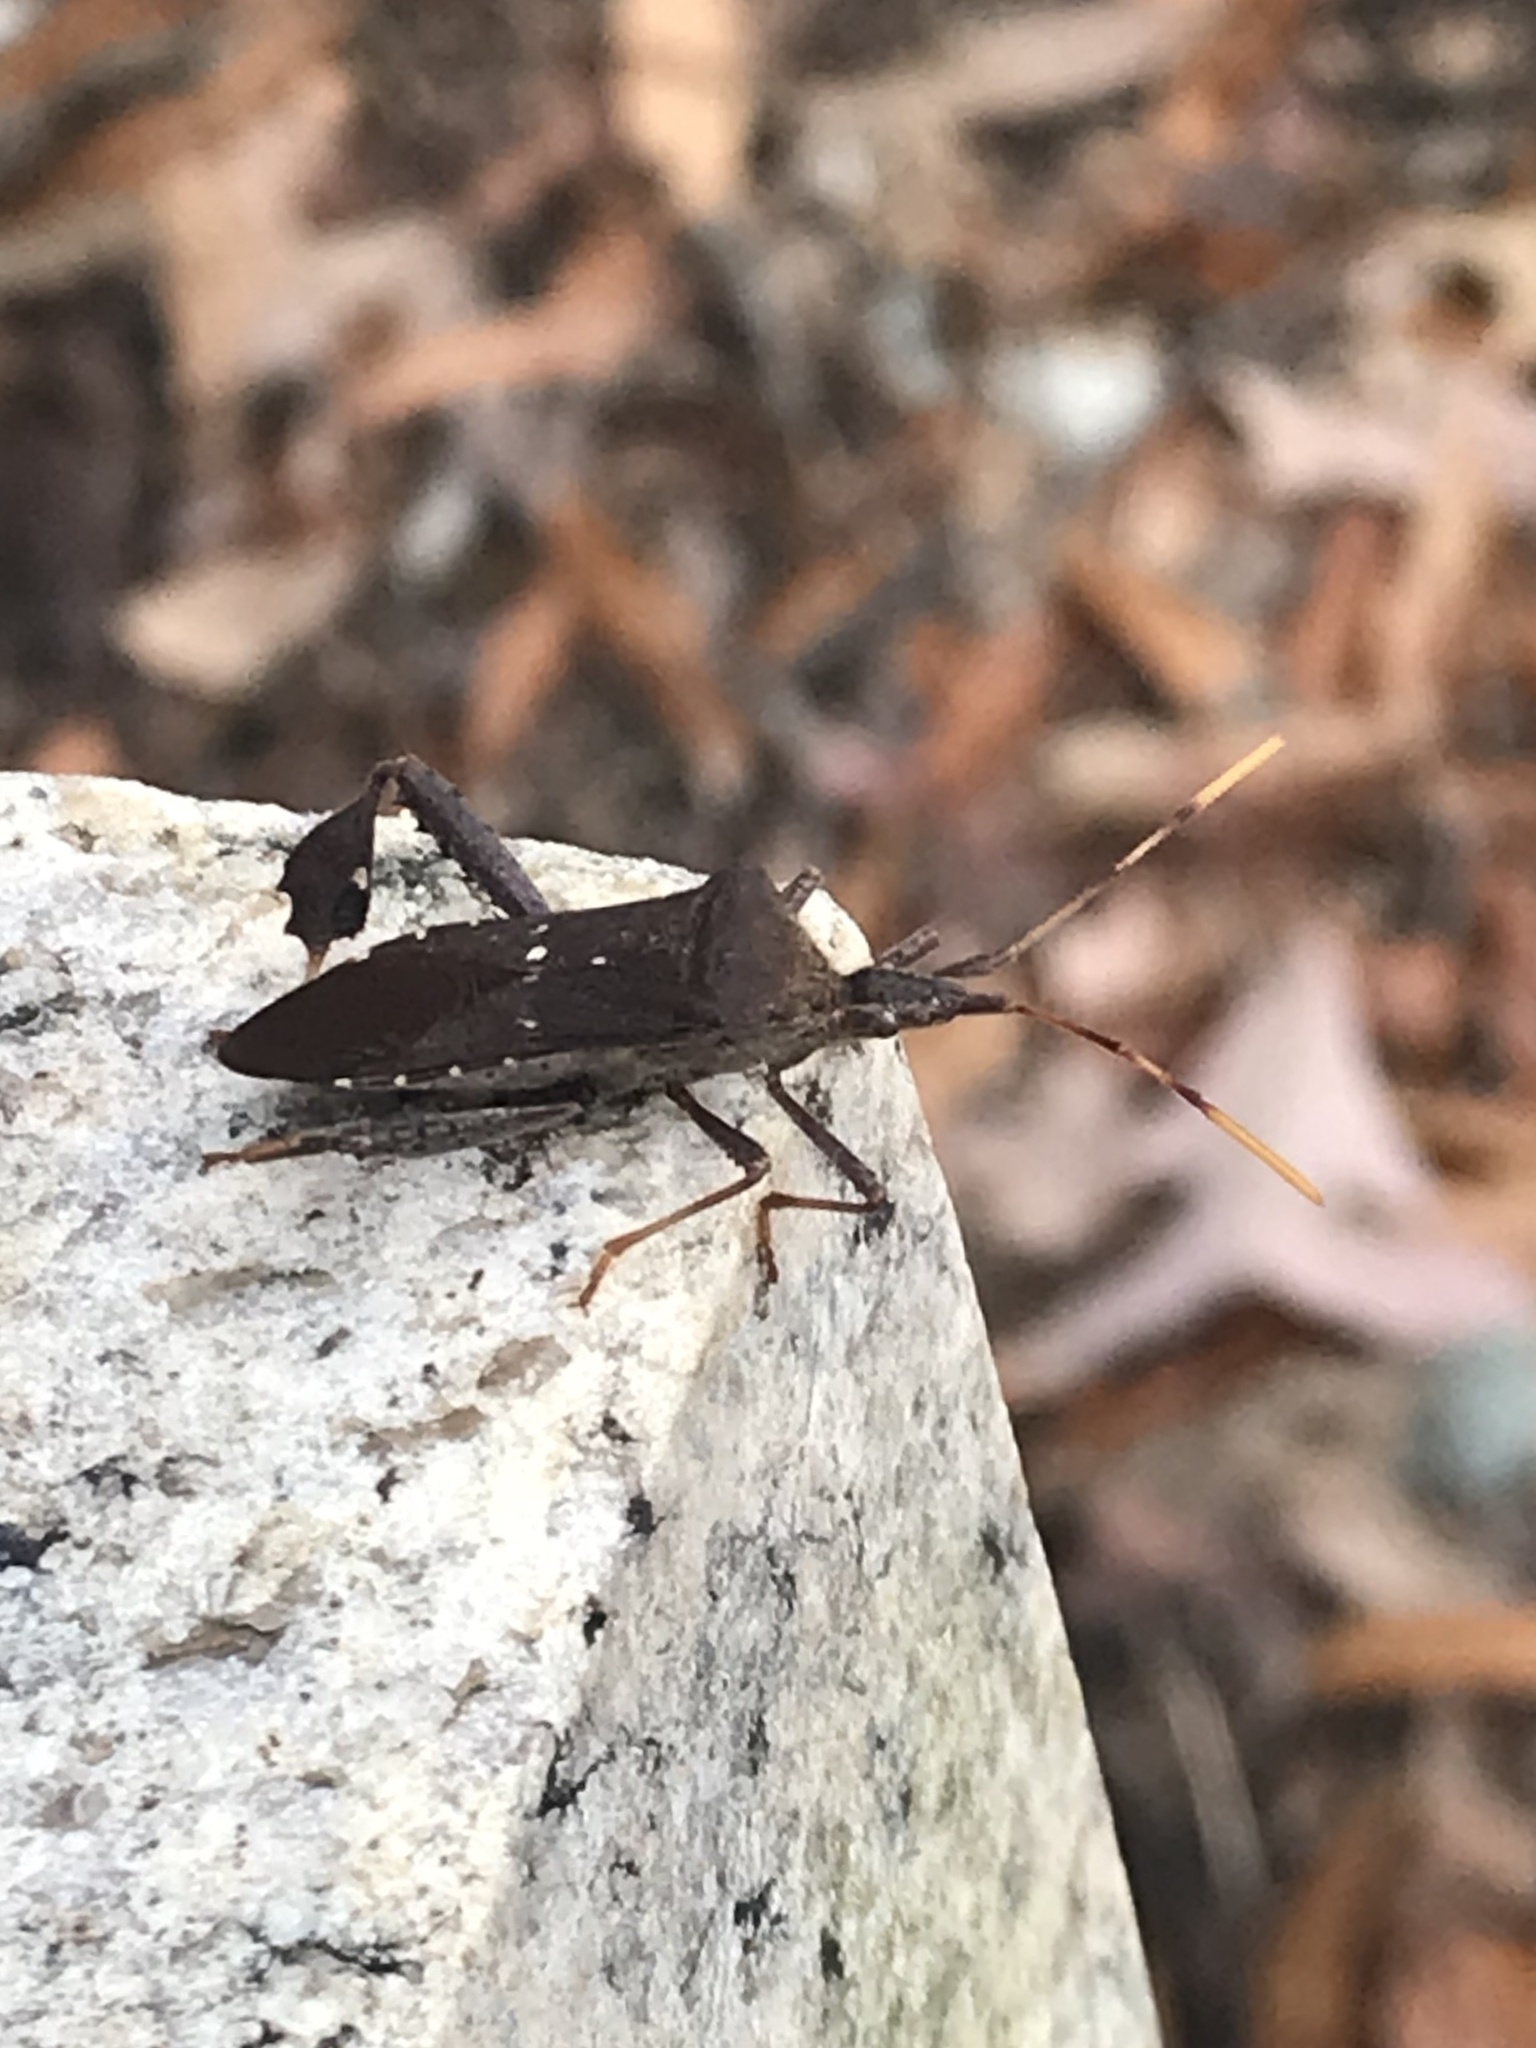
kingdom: Animalia
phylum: Arthropoda
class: Insecta
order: Hemiptera
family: Coreidae
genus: Leptoglossus
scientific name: Leptoglossus oppositus
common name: Northern leaf-footed bug
